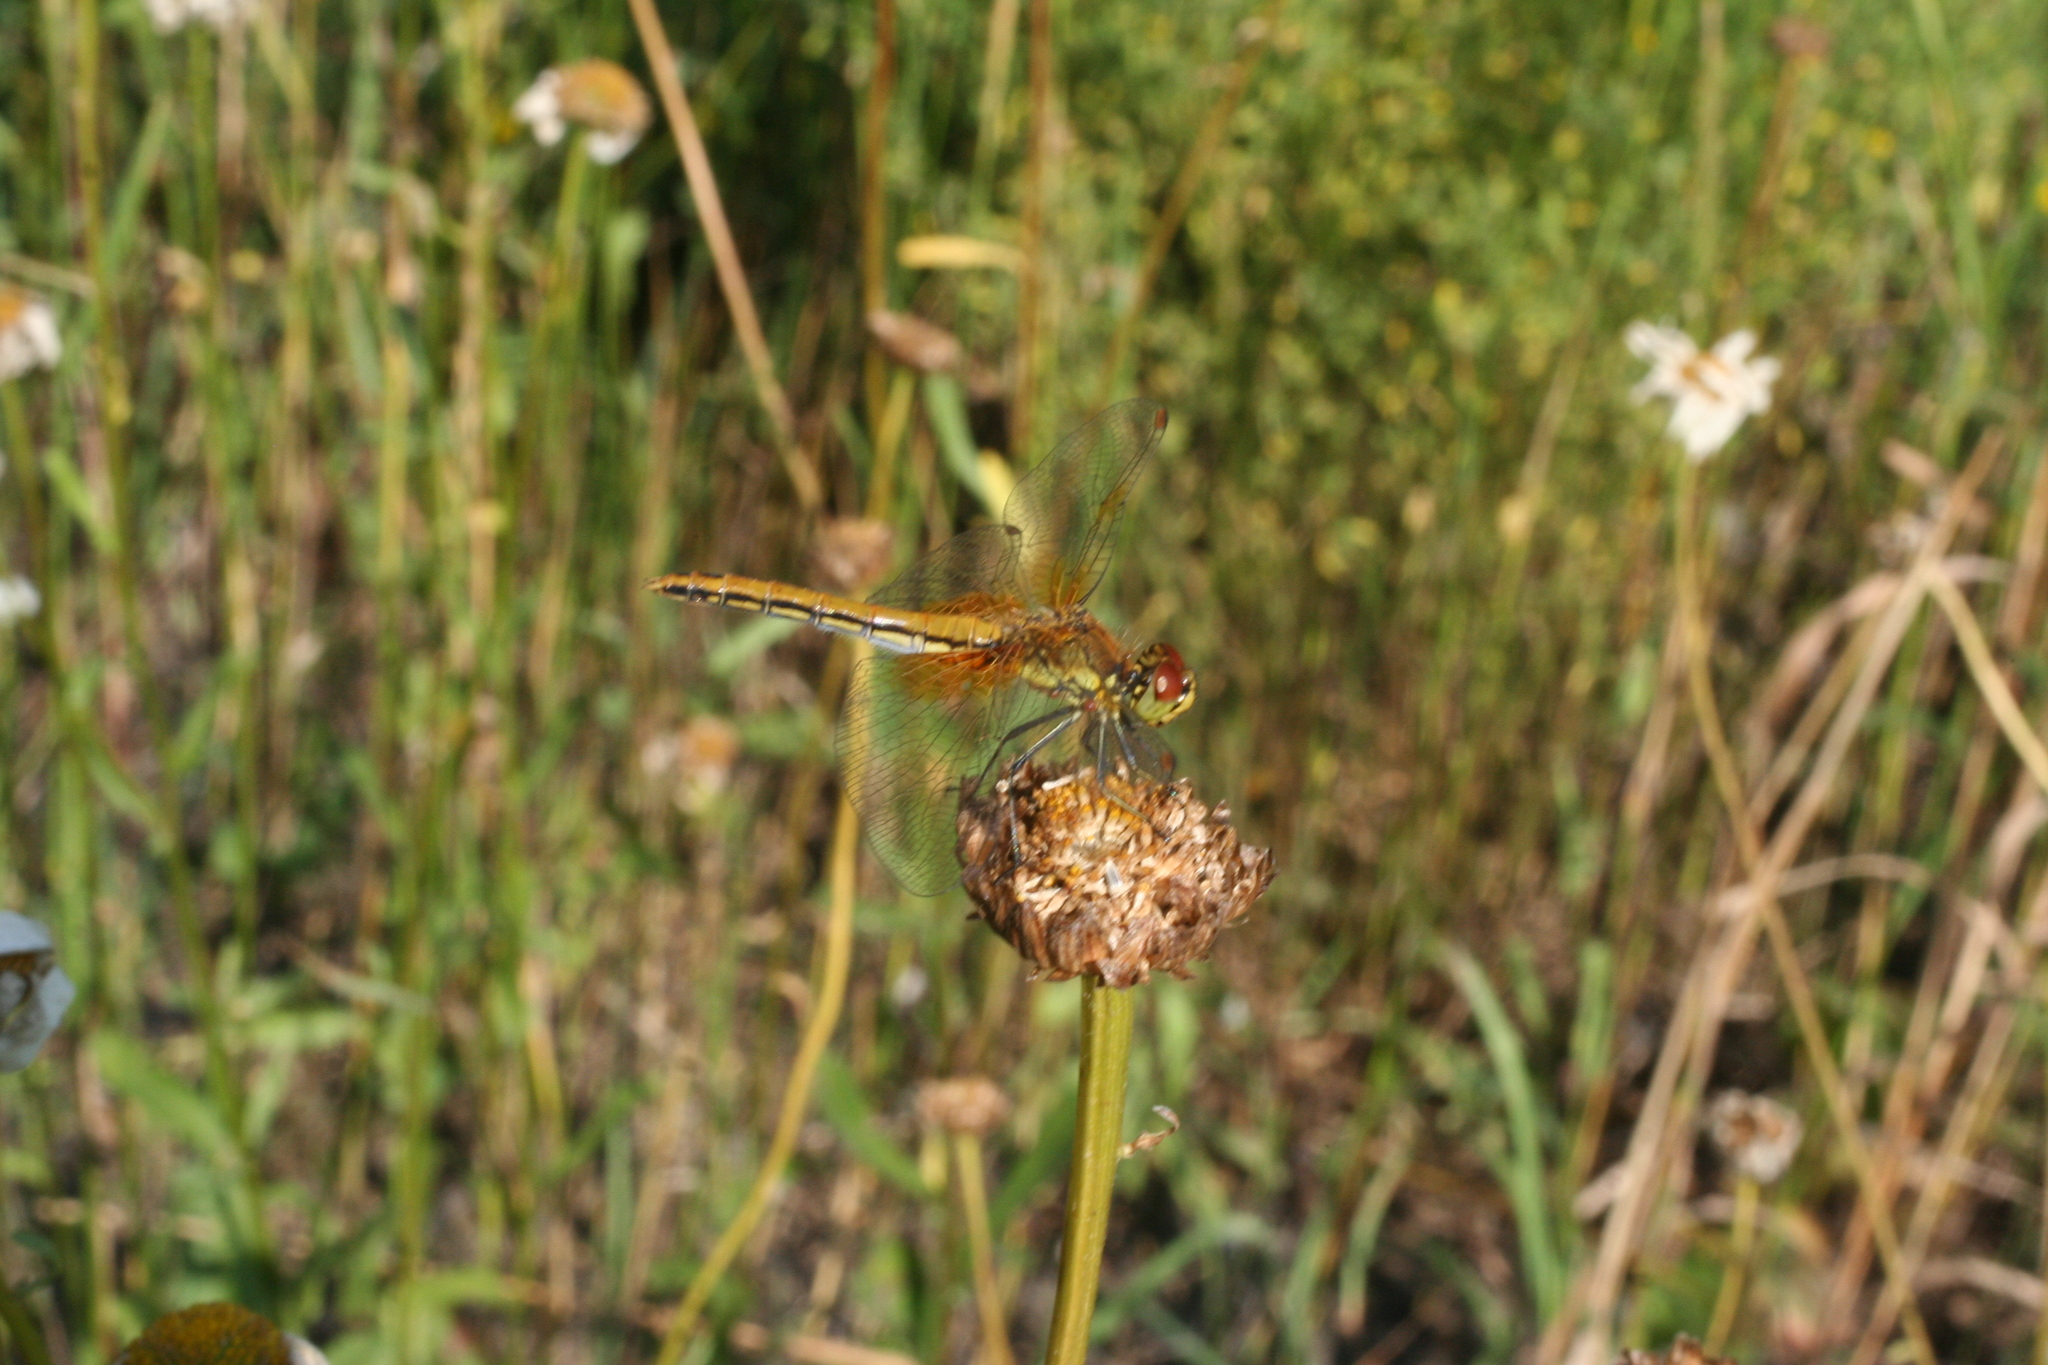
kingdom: Animalia
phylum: Arthropoda
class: Insecta
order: Odonata
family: Libellulidae
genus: Sympetrum
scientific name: Sympetrum flaveolum
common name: Yellow-winged darter
